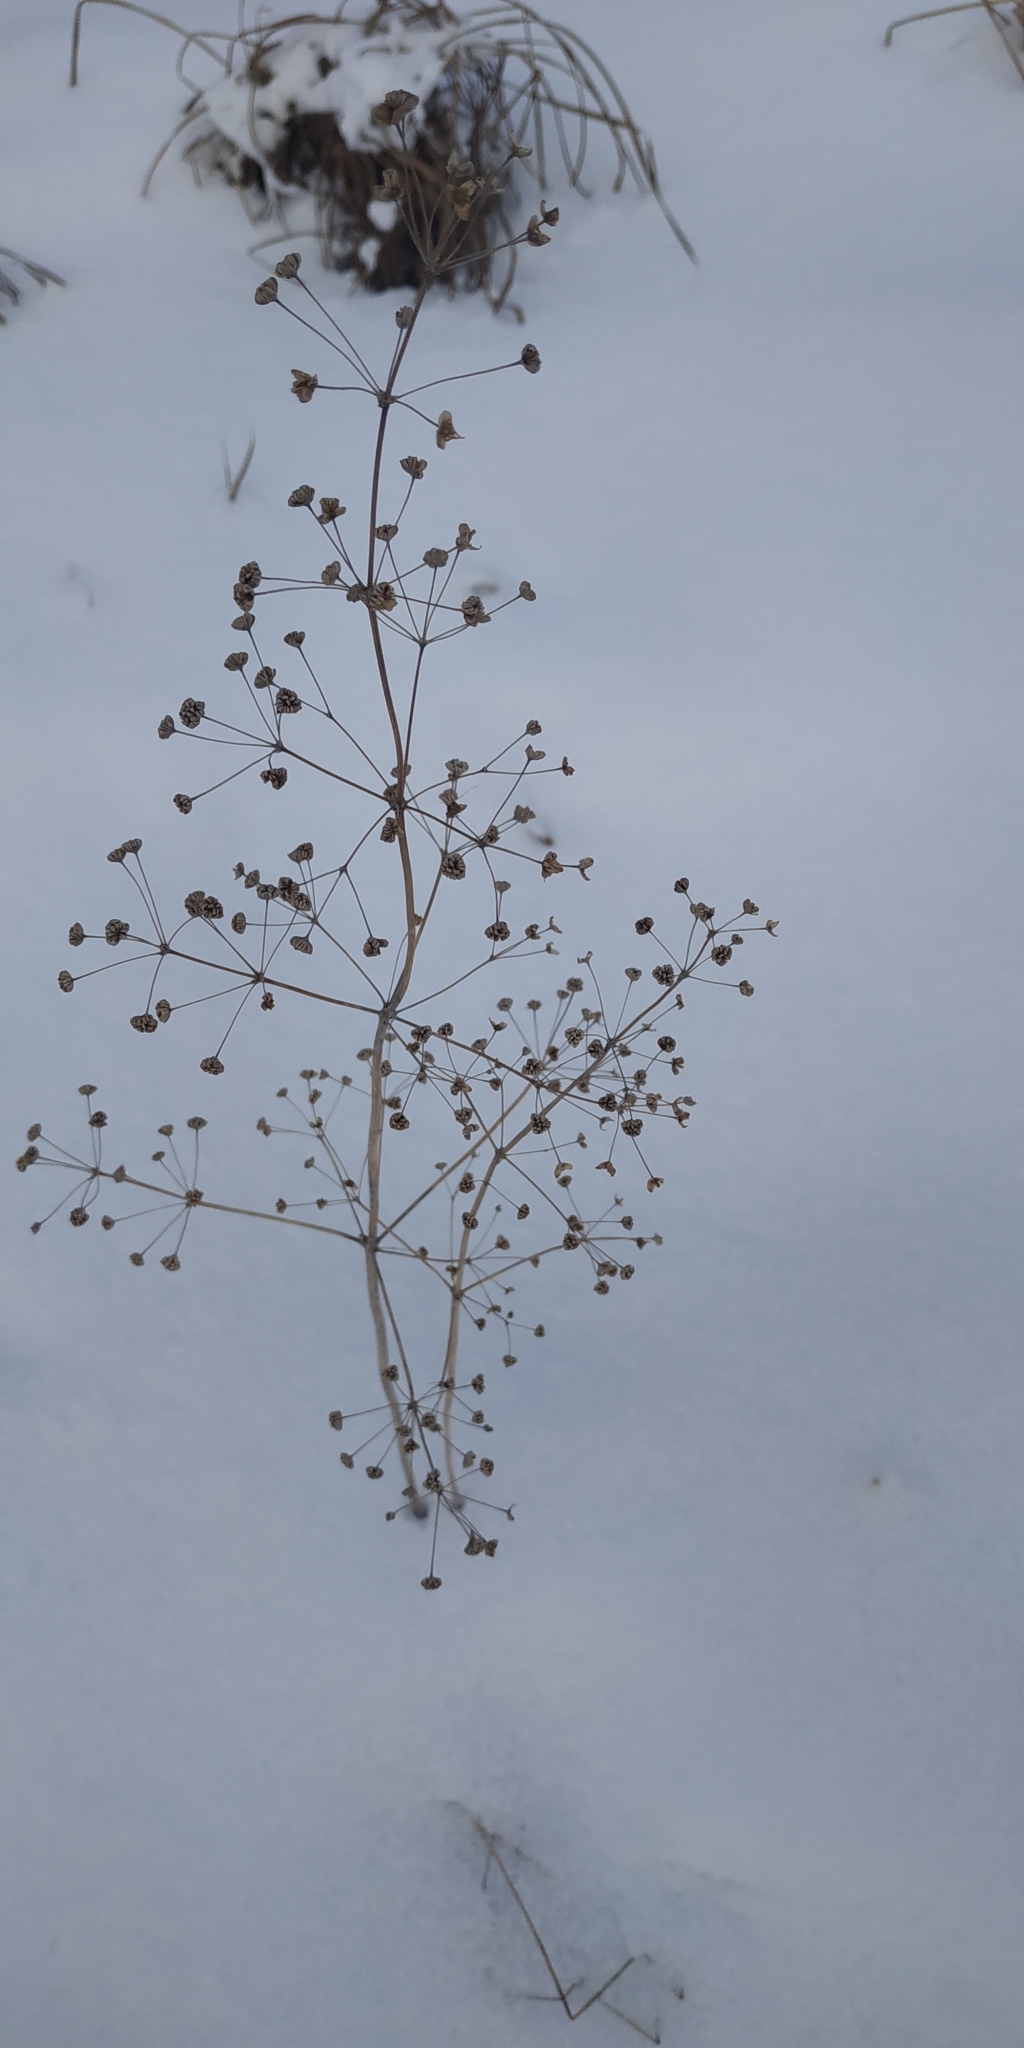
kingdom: Plantae
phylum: Tracheophyta
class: Liliopsida
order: Alismatales
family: Alismataceae
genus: Alisma
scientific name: Alisma plantago-aquatica
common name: Water-plantain
